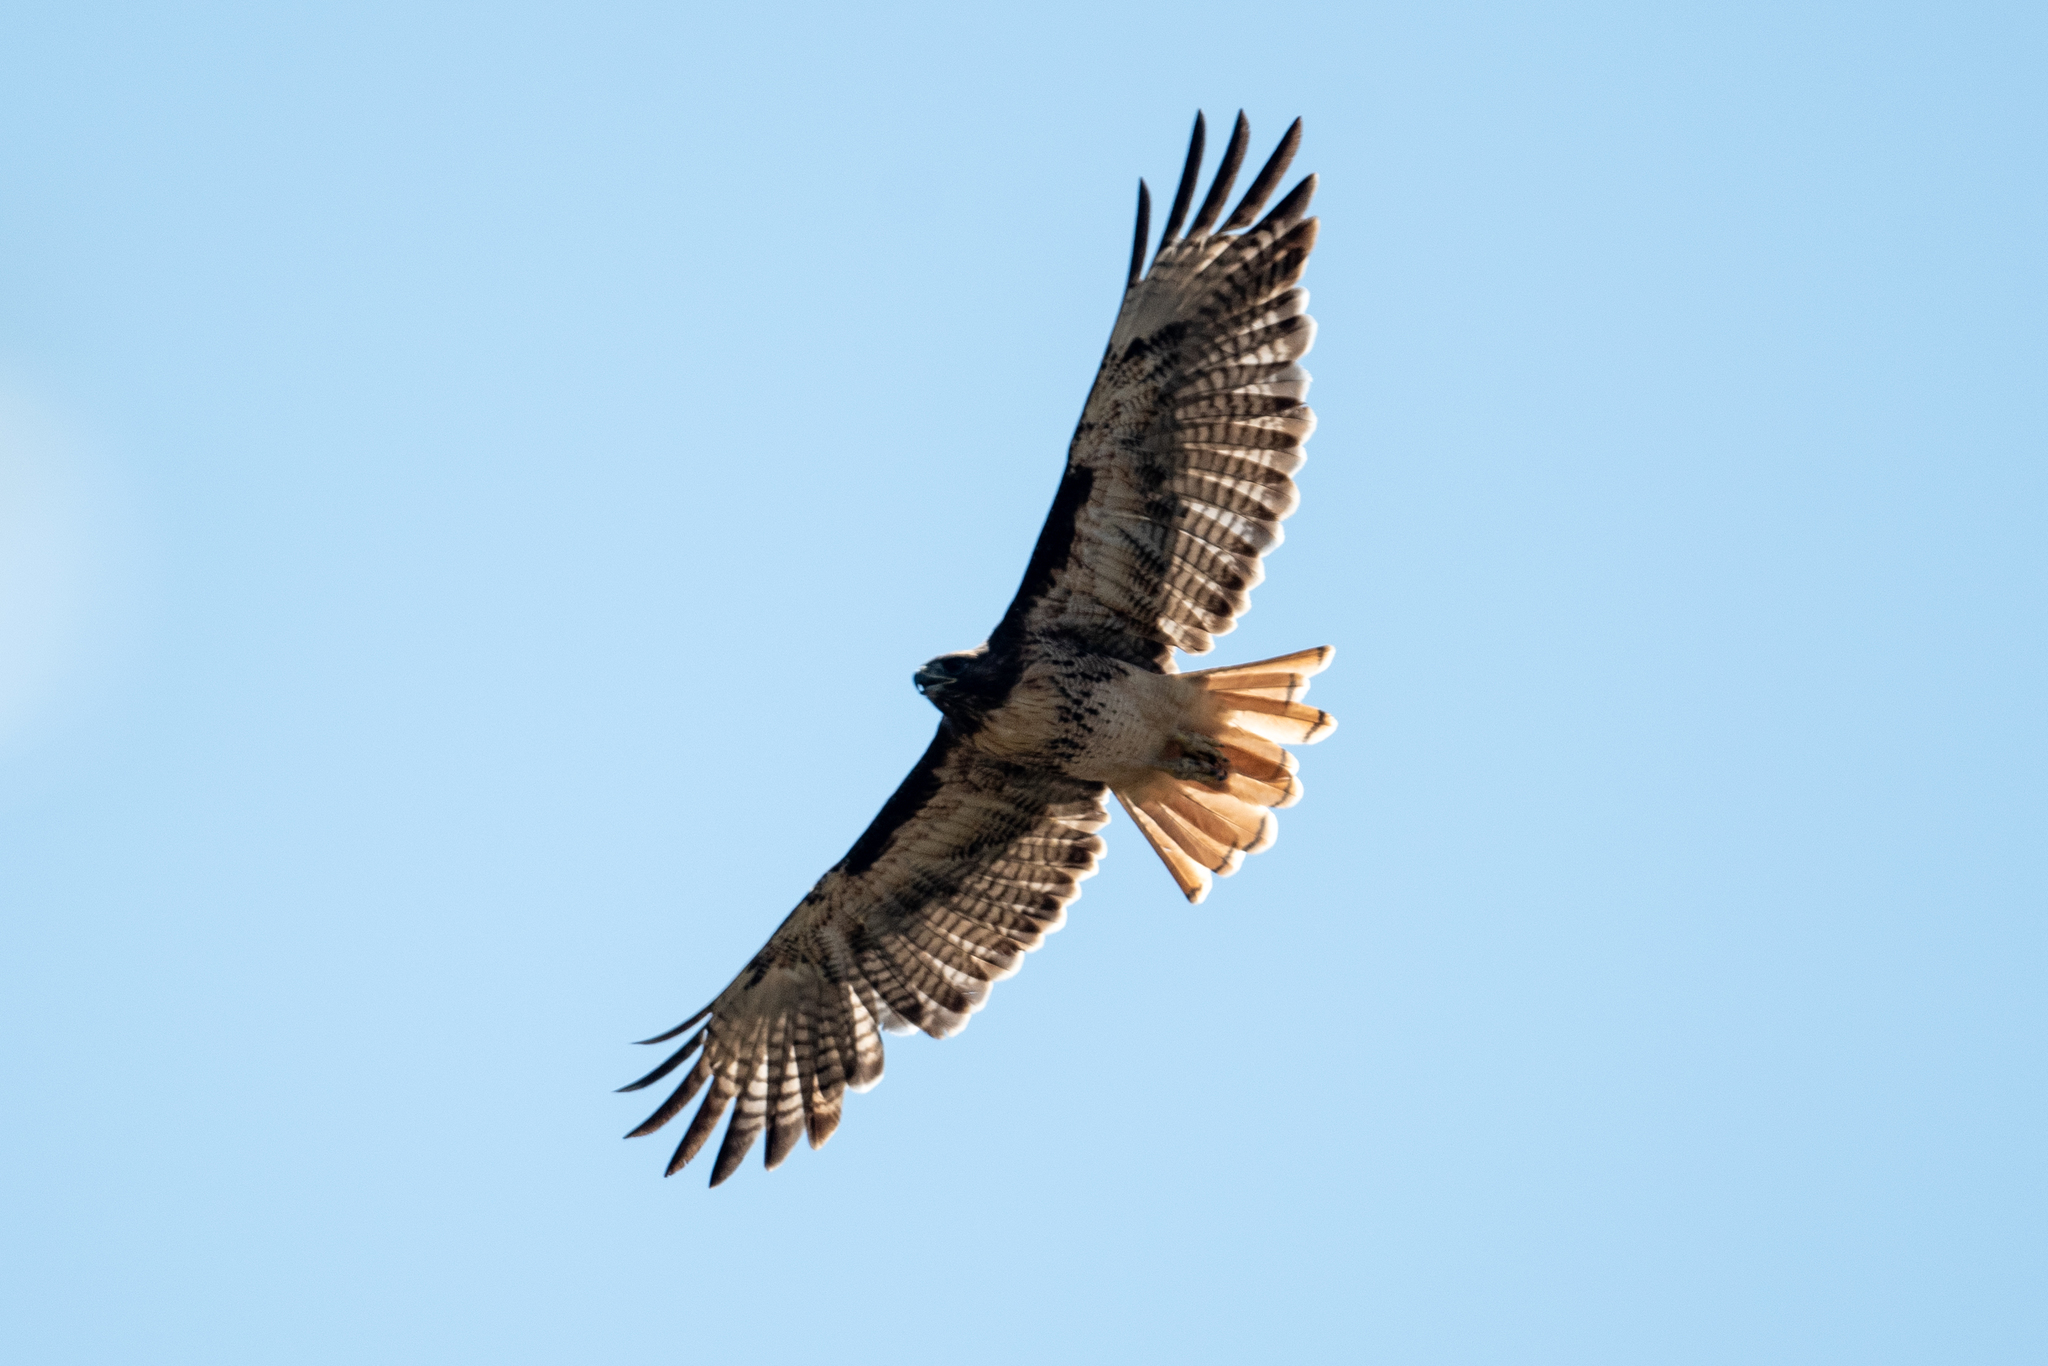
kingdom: Animalia
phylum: Chordata
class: Aves
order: Accipitriformes
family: Accipitridae
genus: Buteo
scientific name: Buteo jamaicensis
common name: Red-tailed hawk
